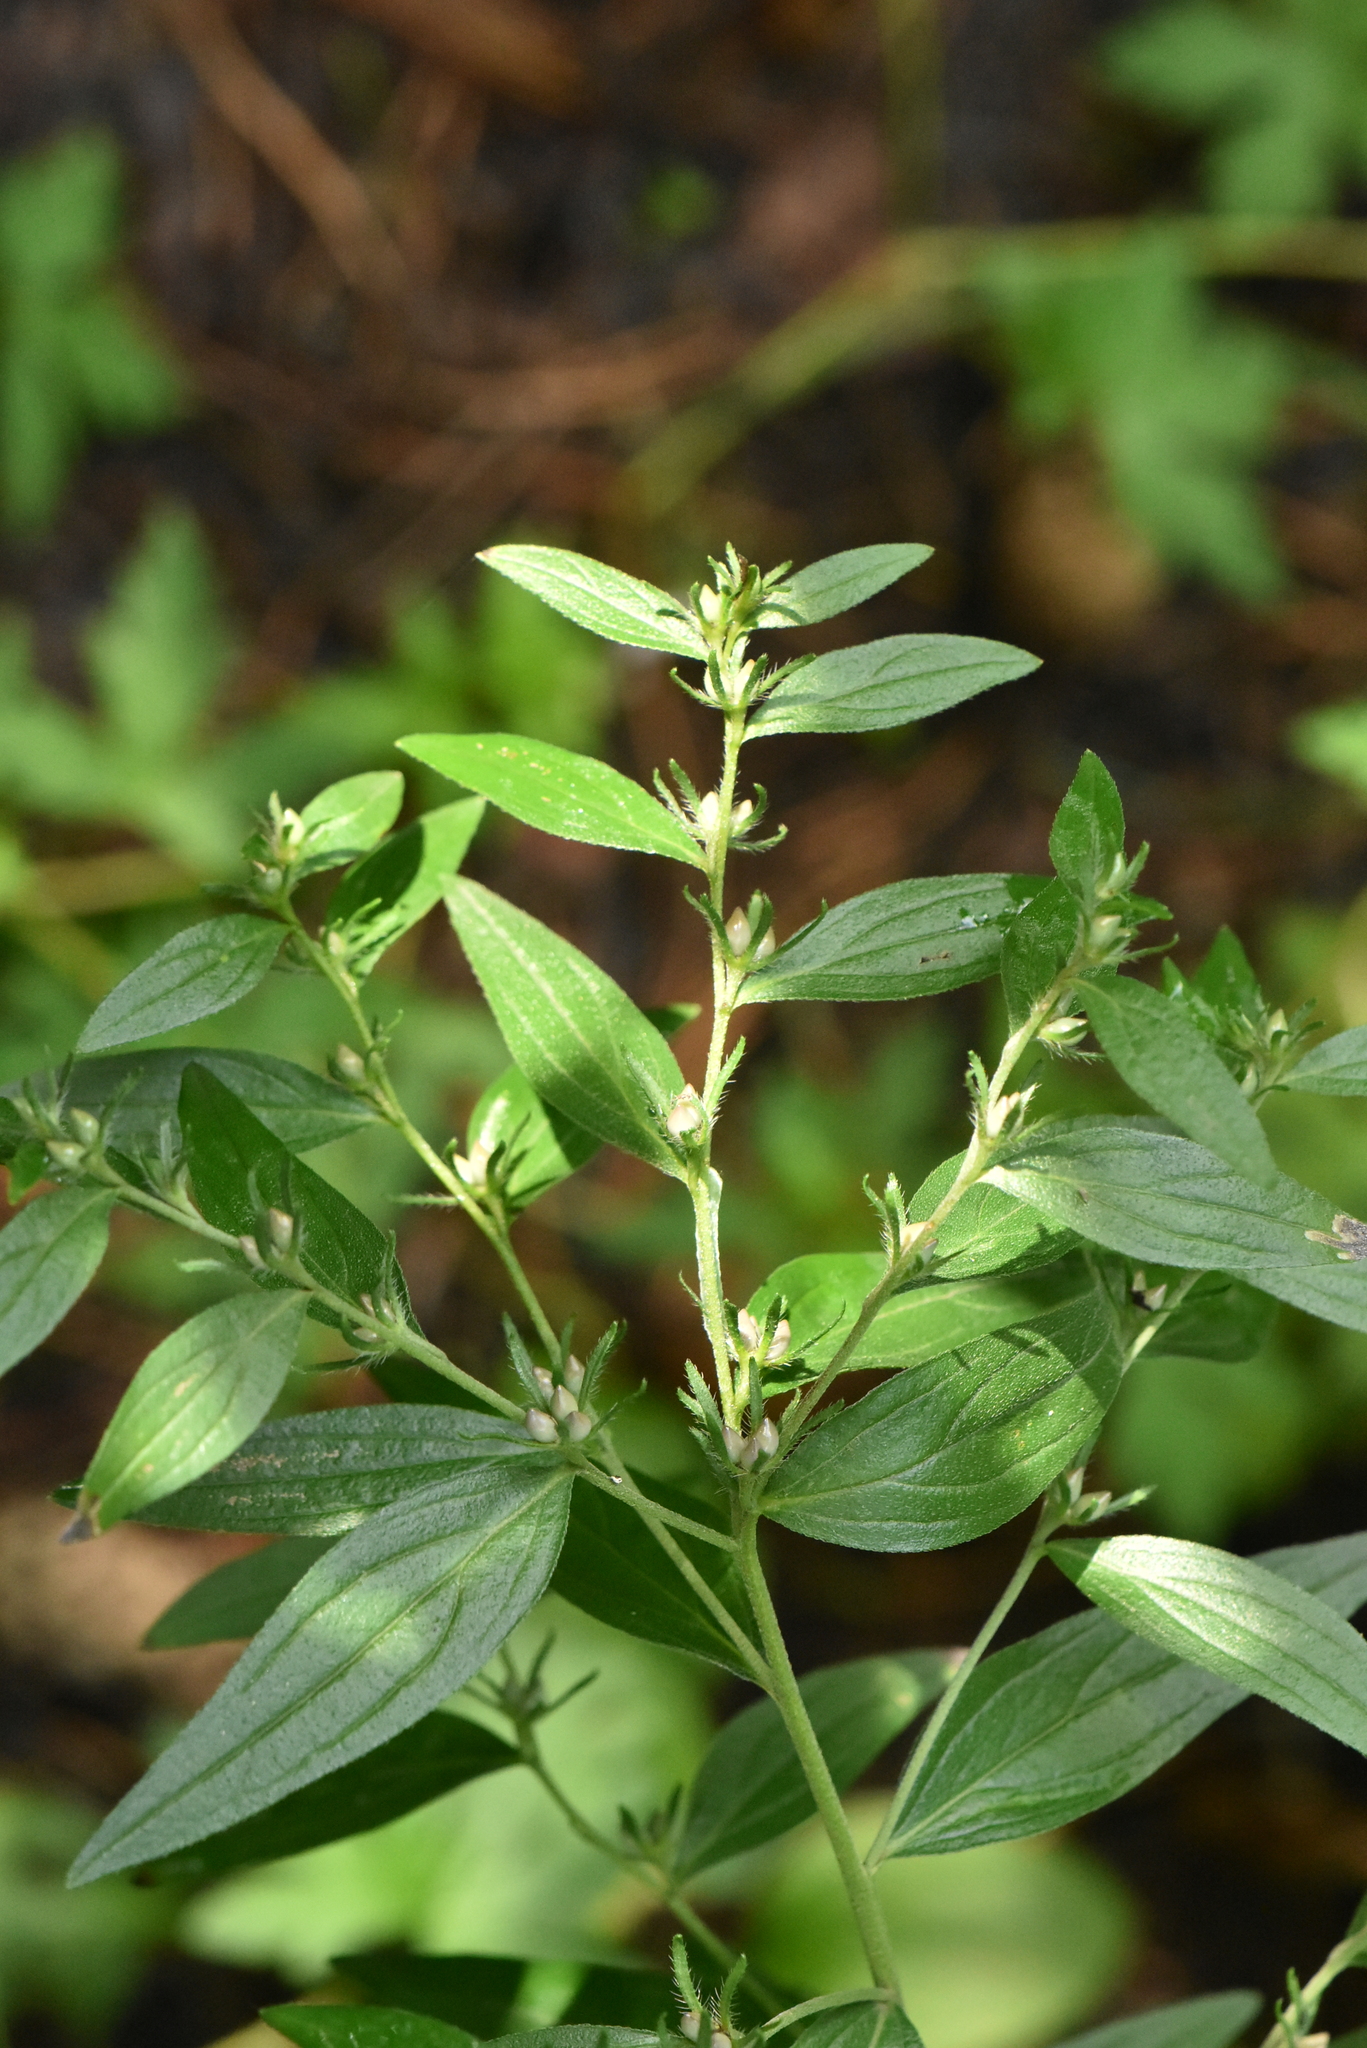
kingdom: Plantae
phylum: Tracheophyta
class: Magnoliopsida
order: Boraginales
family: Boraginaceae
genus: Lithospermum
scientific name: Lithospermum officinale
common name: Common gromwell
